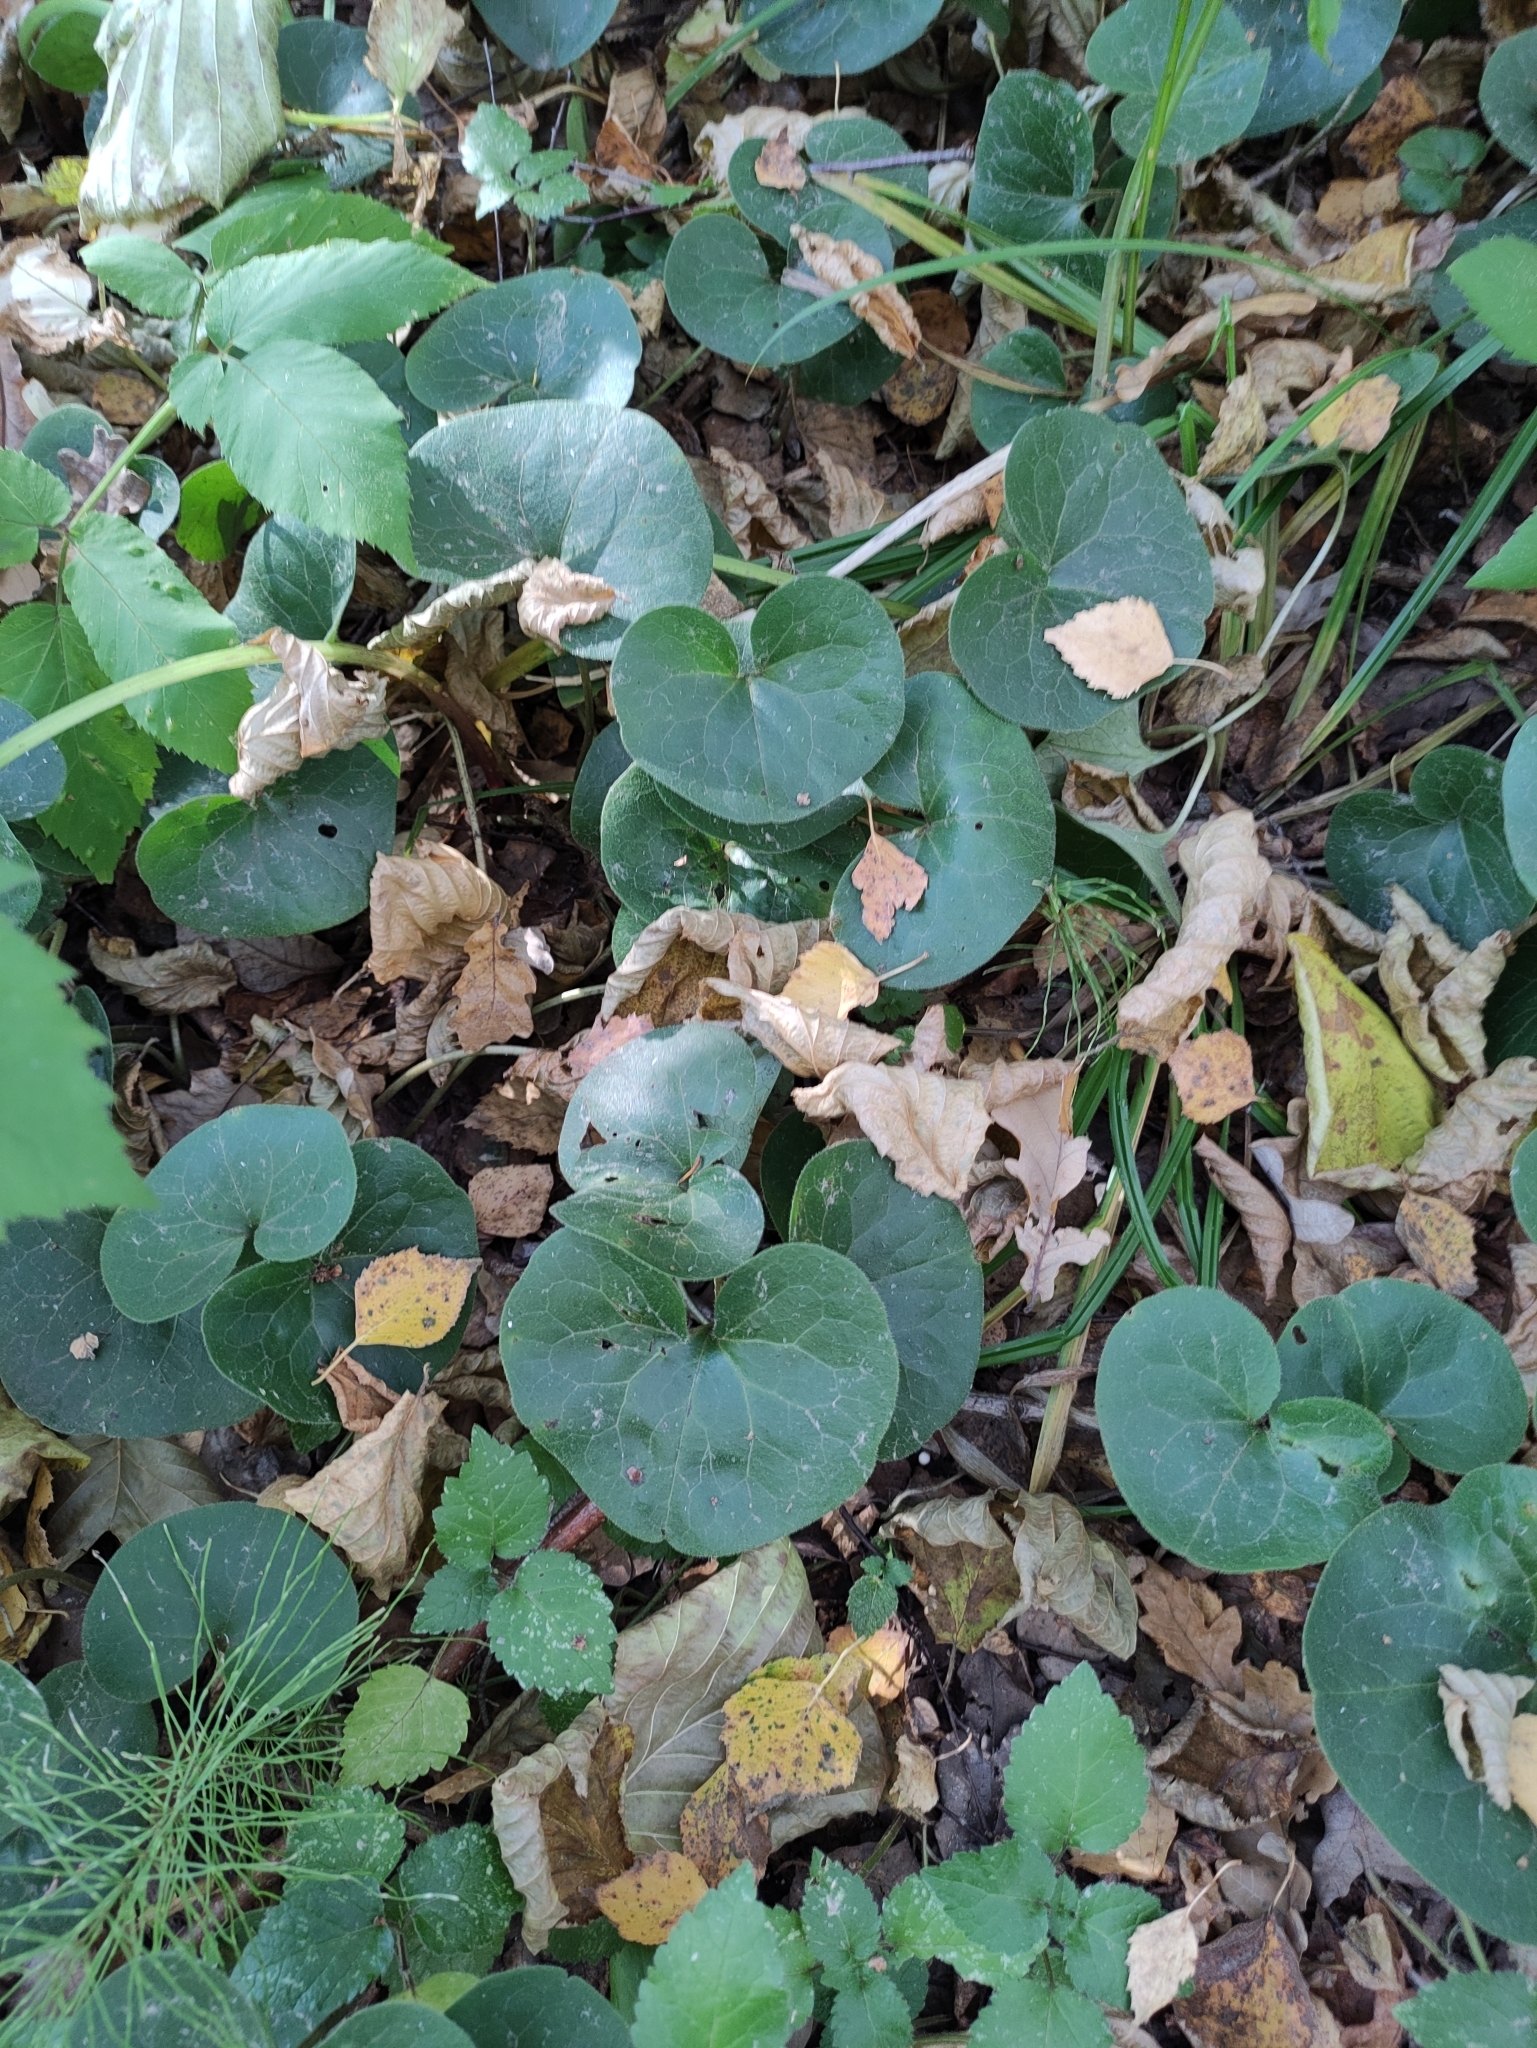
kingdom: Plantae
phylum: Tracheophyta
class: Magnoliopsida
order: Piperales
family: Aristolochiaceae
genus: Asarum
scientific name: Asarum europaeum
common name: Asarabacca
